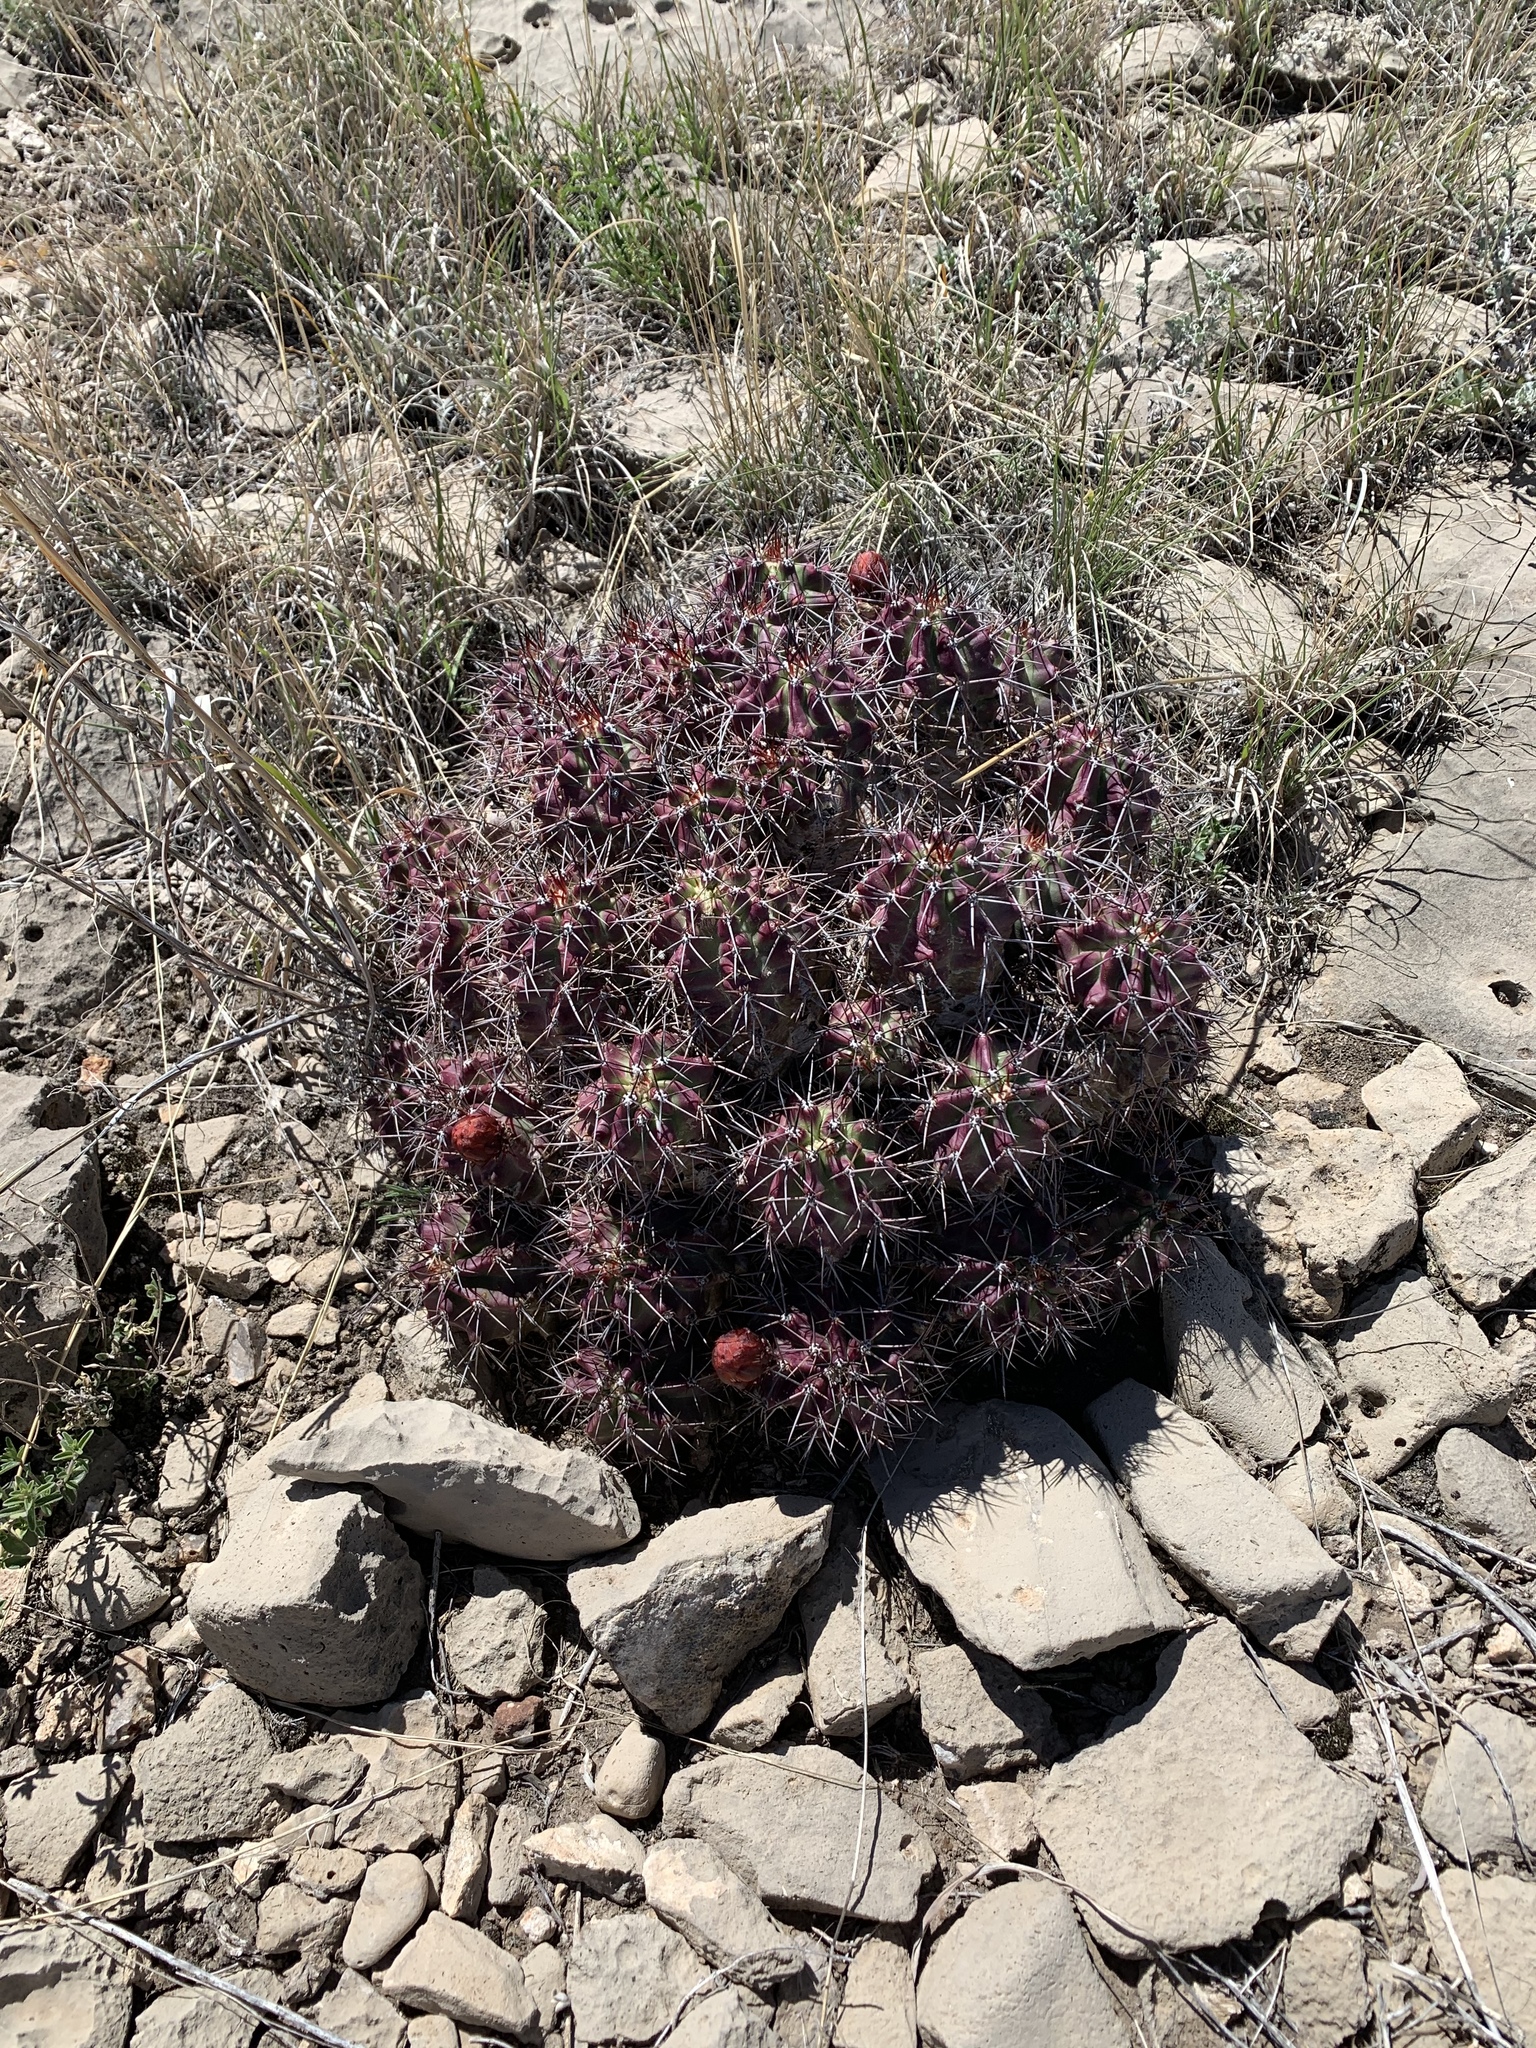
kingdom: Plantae
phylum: Tracheophyta
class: Magnoliopsida
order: Caryophyllales
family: Cactaceae
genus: Echinocereus
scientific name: Echinocereus coccineus
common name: Scarlet hedgehog cactus
